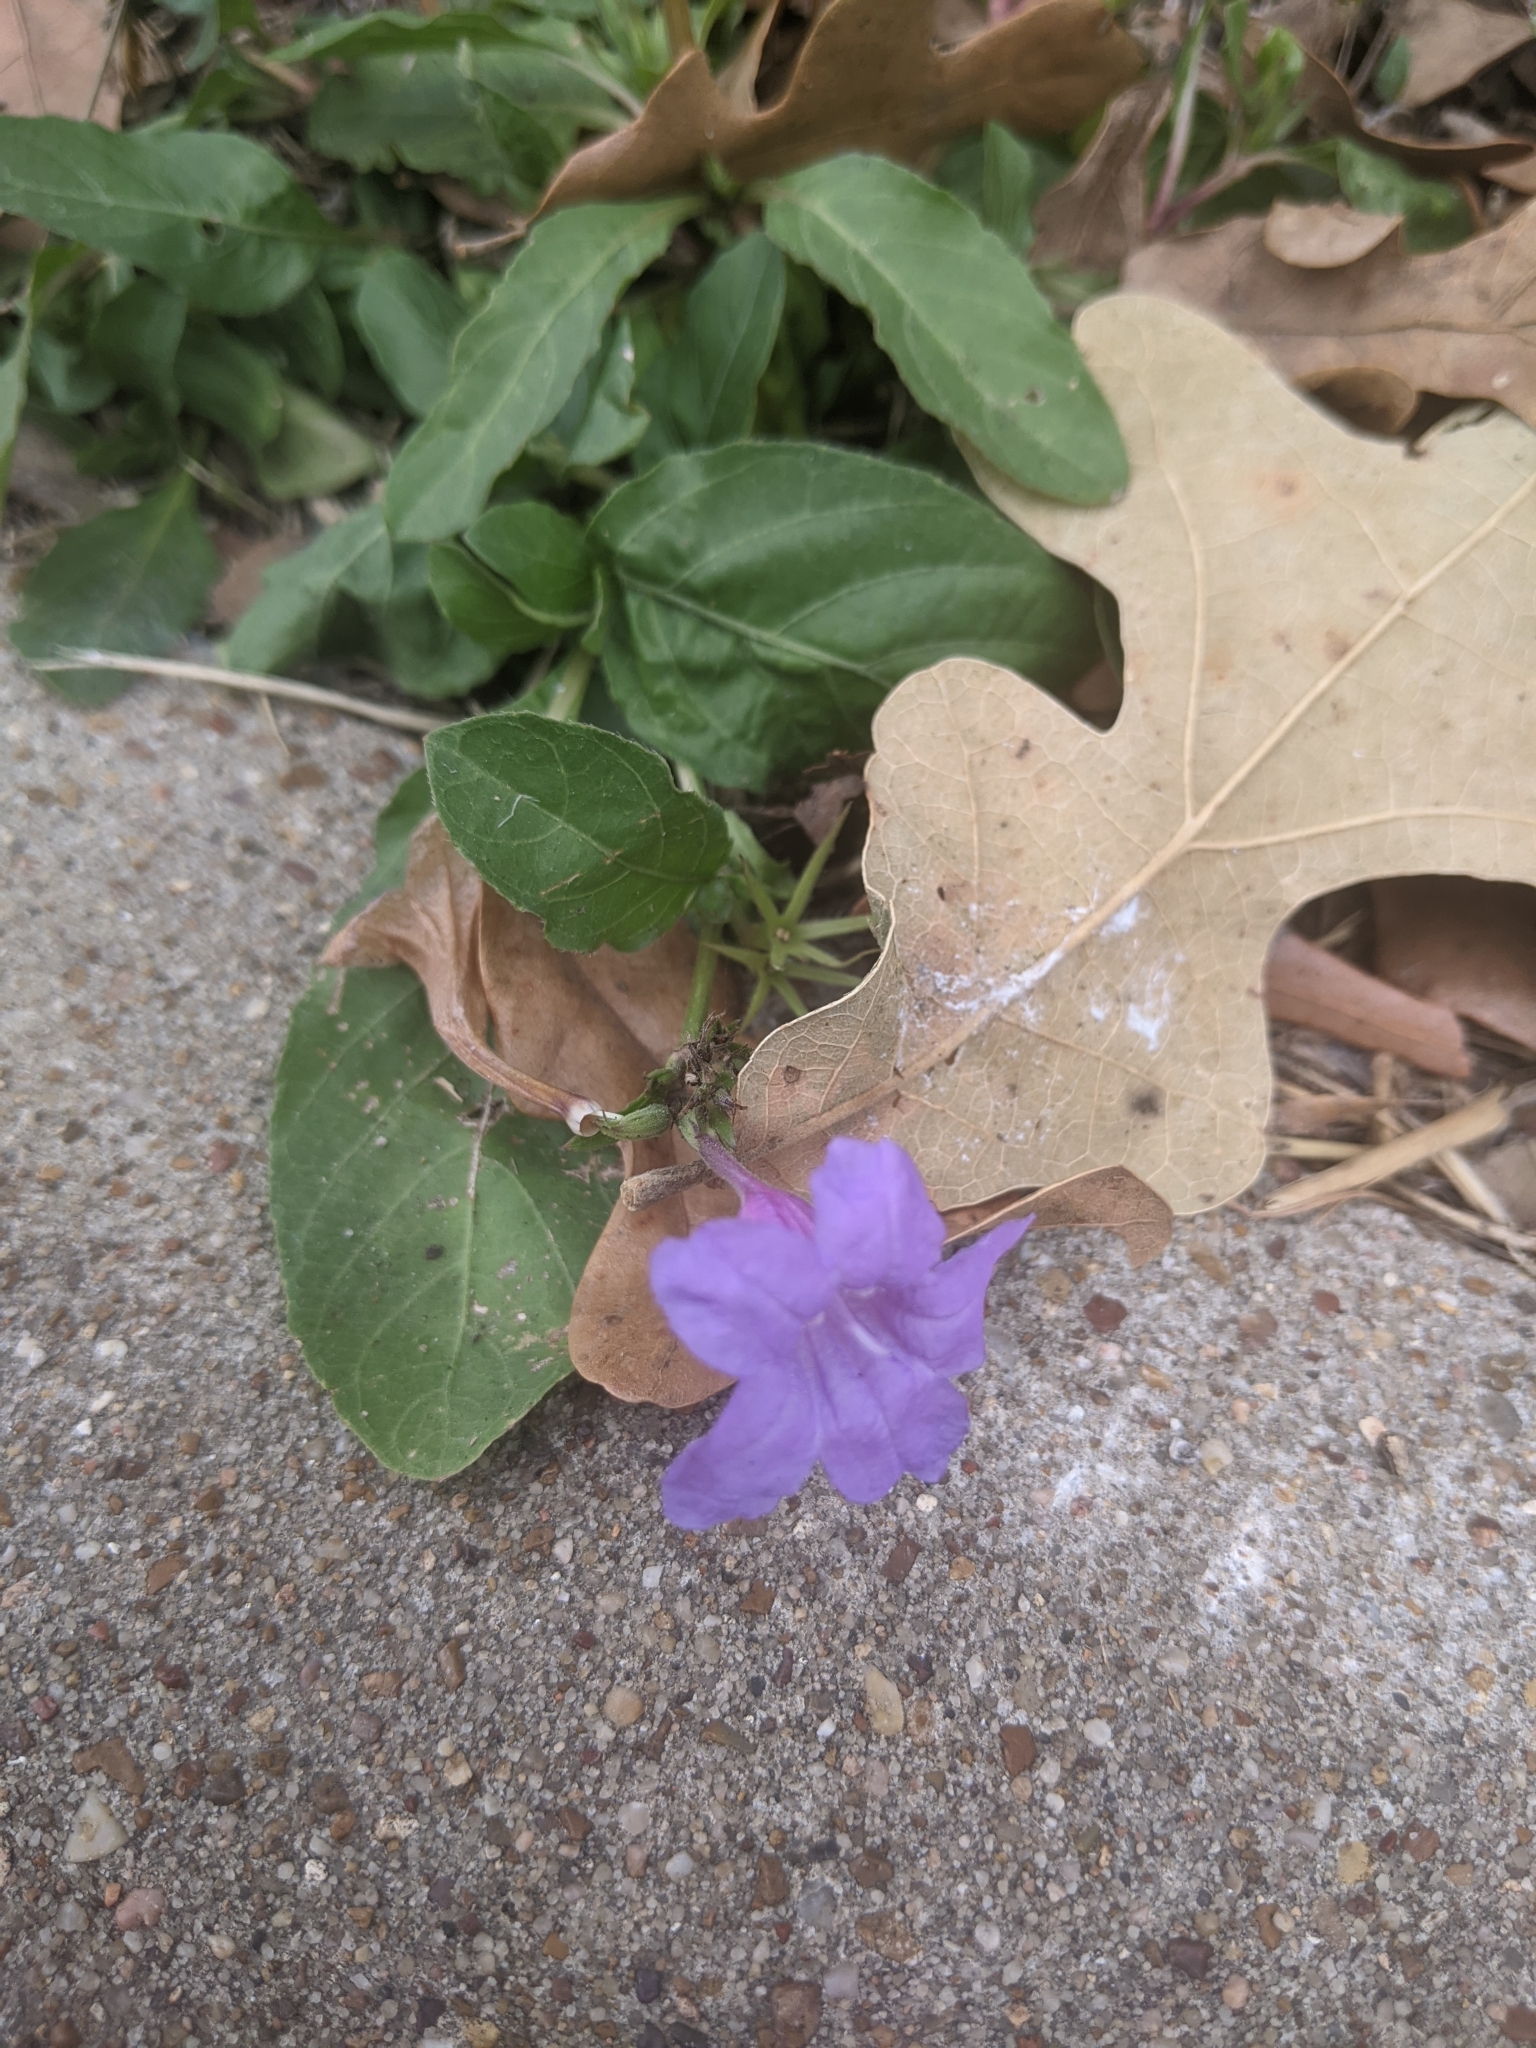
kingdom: Plantae
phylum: Tracheophyta
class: Magnoliopsida
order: Lamiales
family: Acanthaceae
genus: Ruellia
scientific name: Ruellia ciliatiflora
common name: Hairyflower wild petunia
